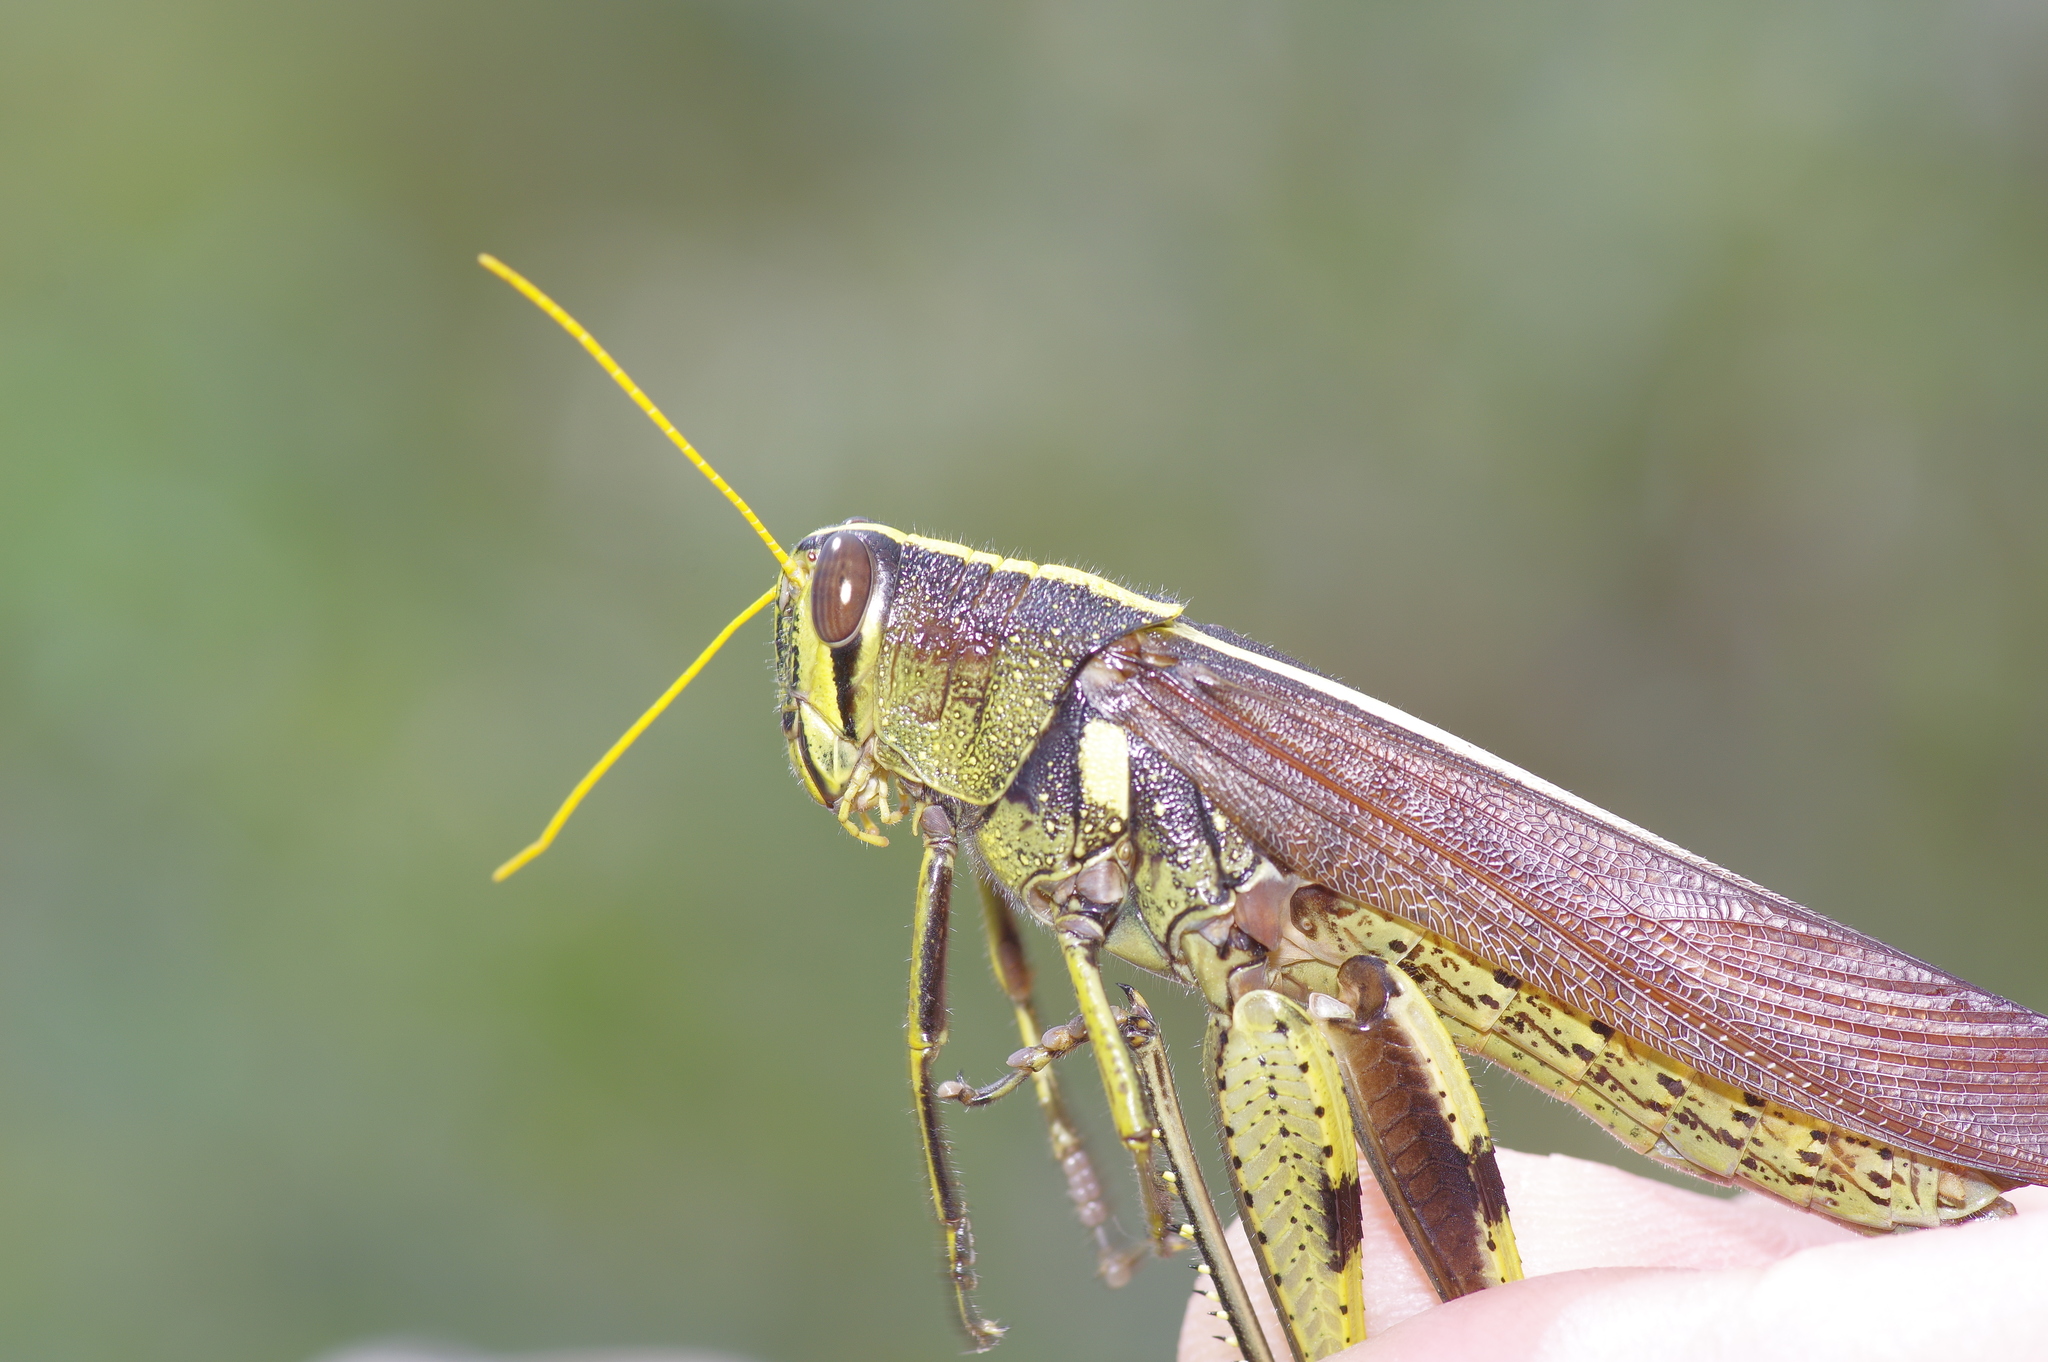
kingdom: Animalia
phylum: Arthropoda
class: Insecta
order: Orthoptera
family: Acrididae
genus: Schistocerca
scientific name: Schistocerca obscura
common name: Obscure bird grasshopper
